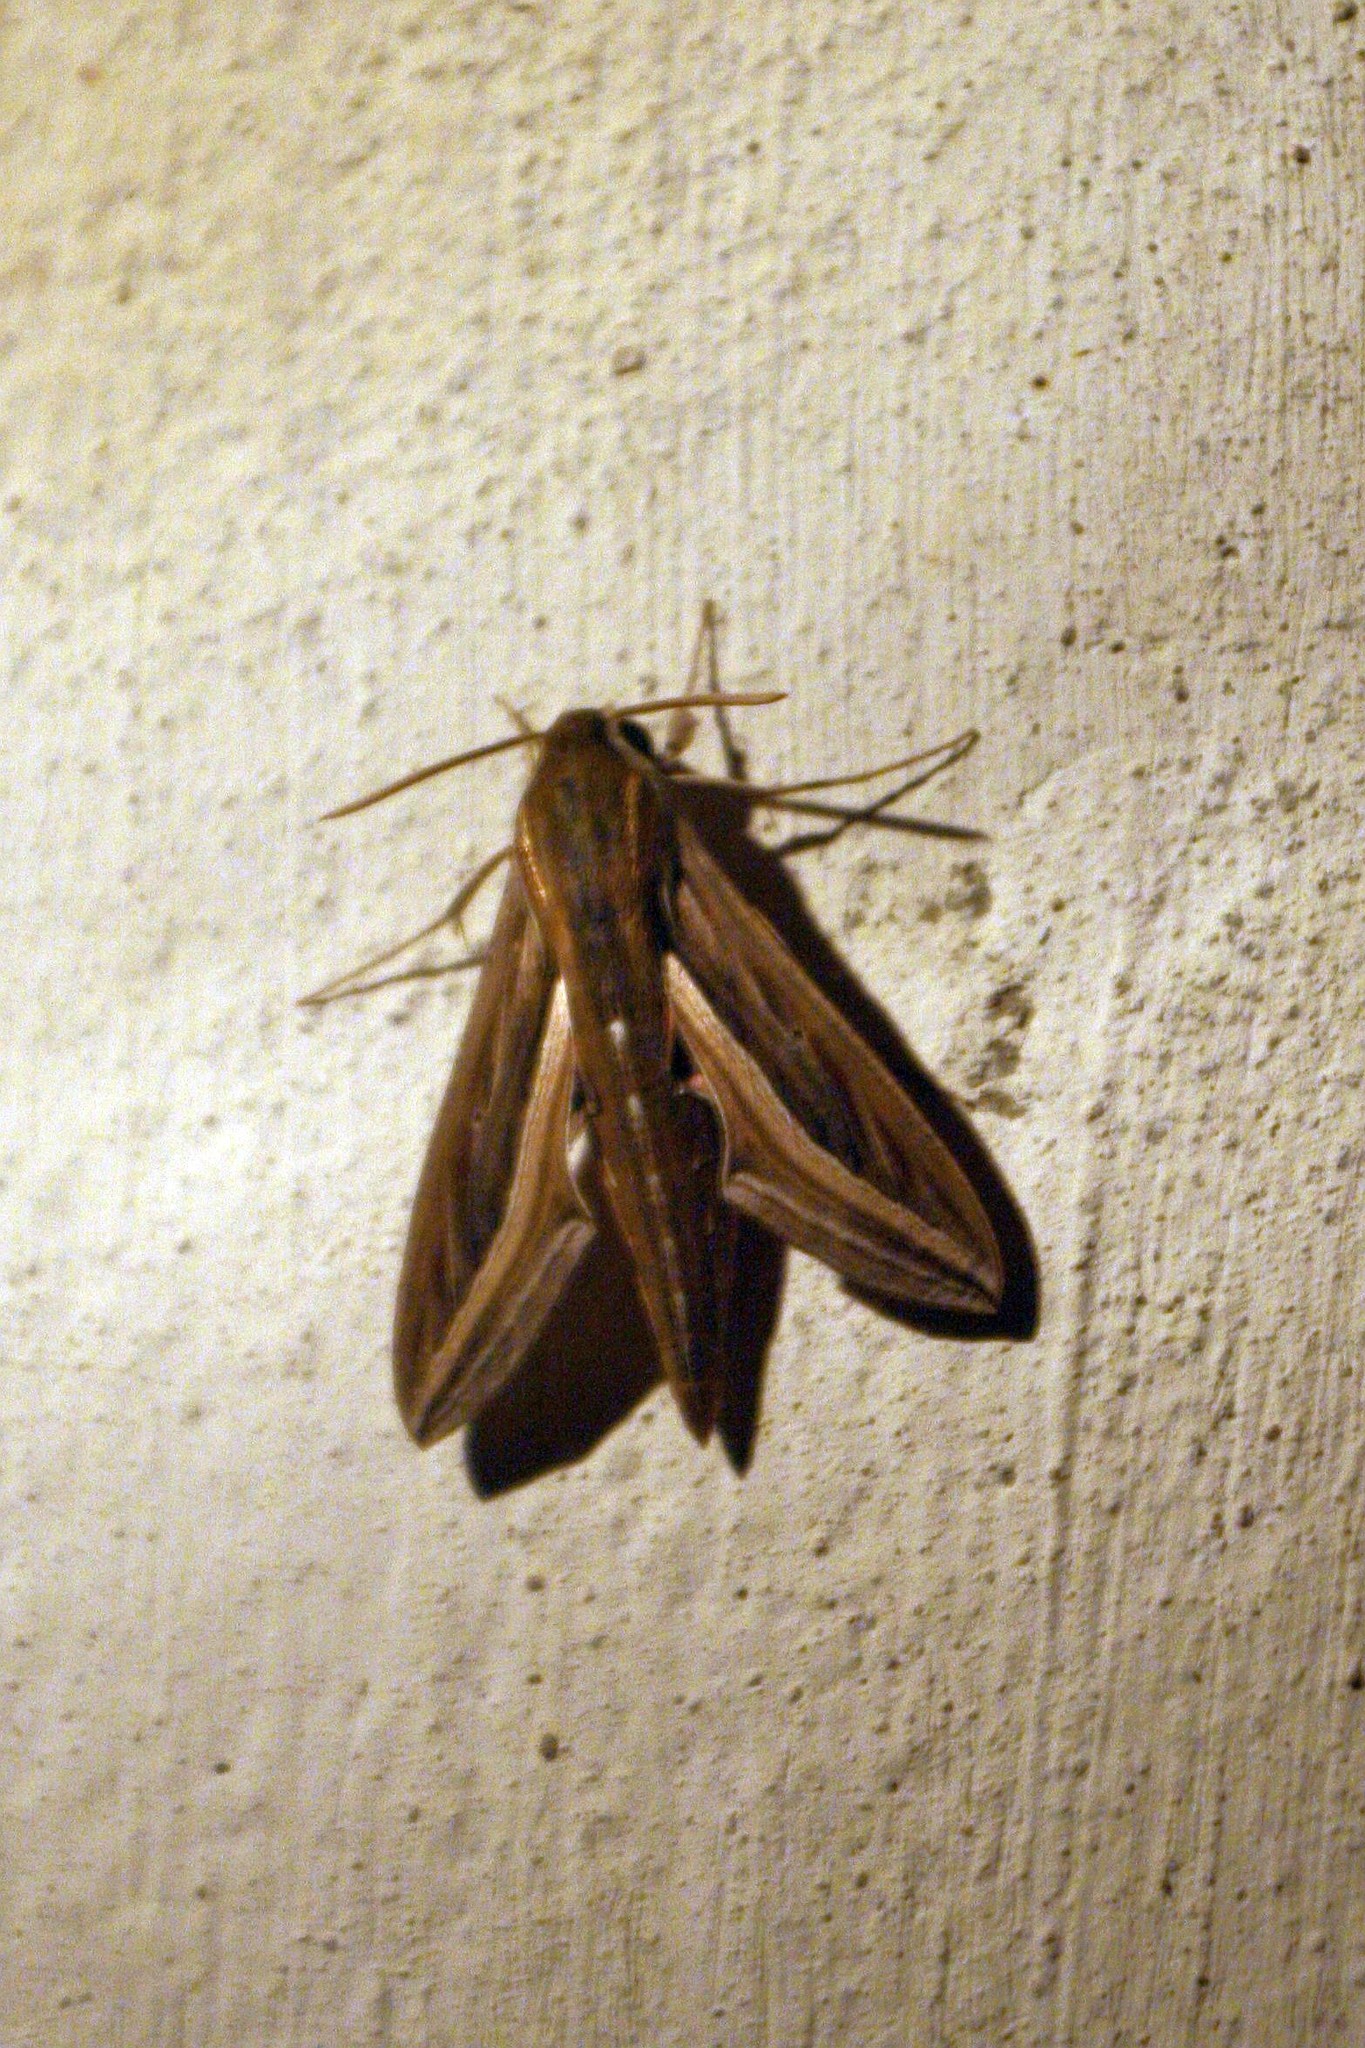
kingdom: Animalia
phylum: Arthropoda
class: Insecta
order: Lepidoptera
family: Sphingidae
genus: Hippotion
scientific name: Hippotion celerio
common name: Silver-striped hawk-moth
